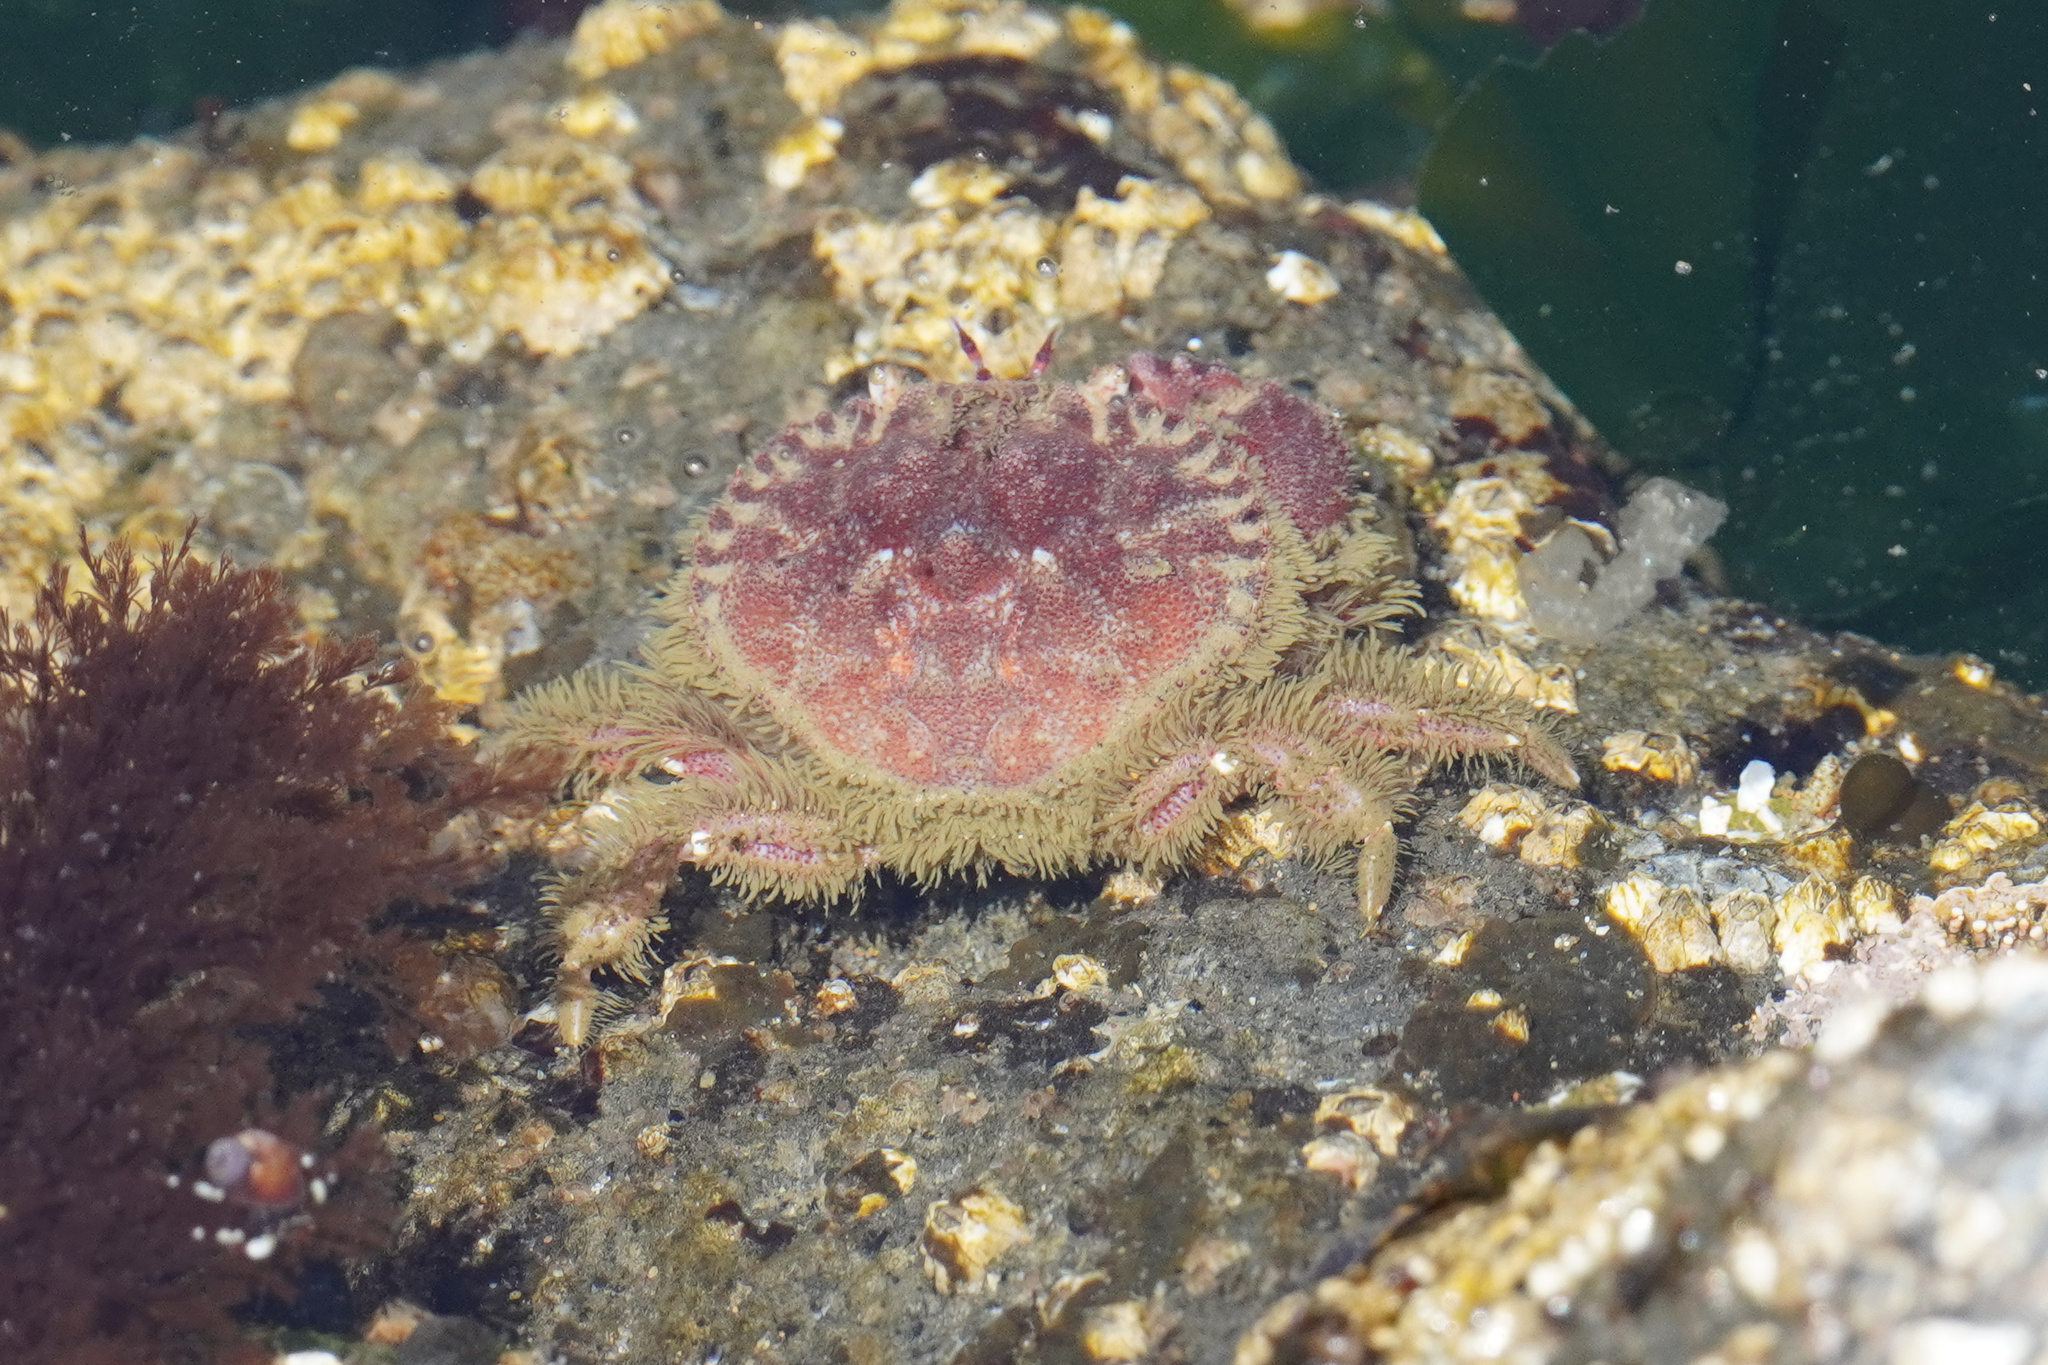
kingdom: Animalia
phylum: Arthropoda
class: Malacostraca
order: Decapoda
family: Cancridae
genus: Glebocarcinus
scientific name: Glebocarcinus oregonensis
